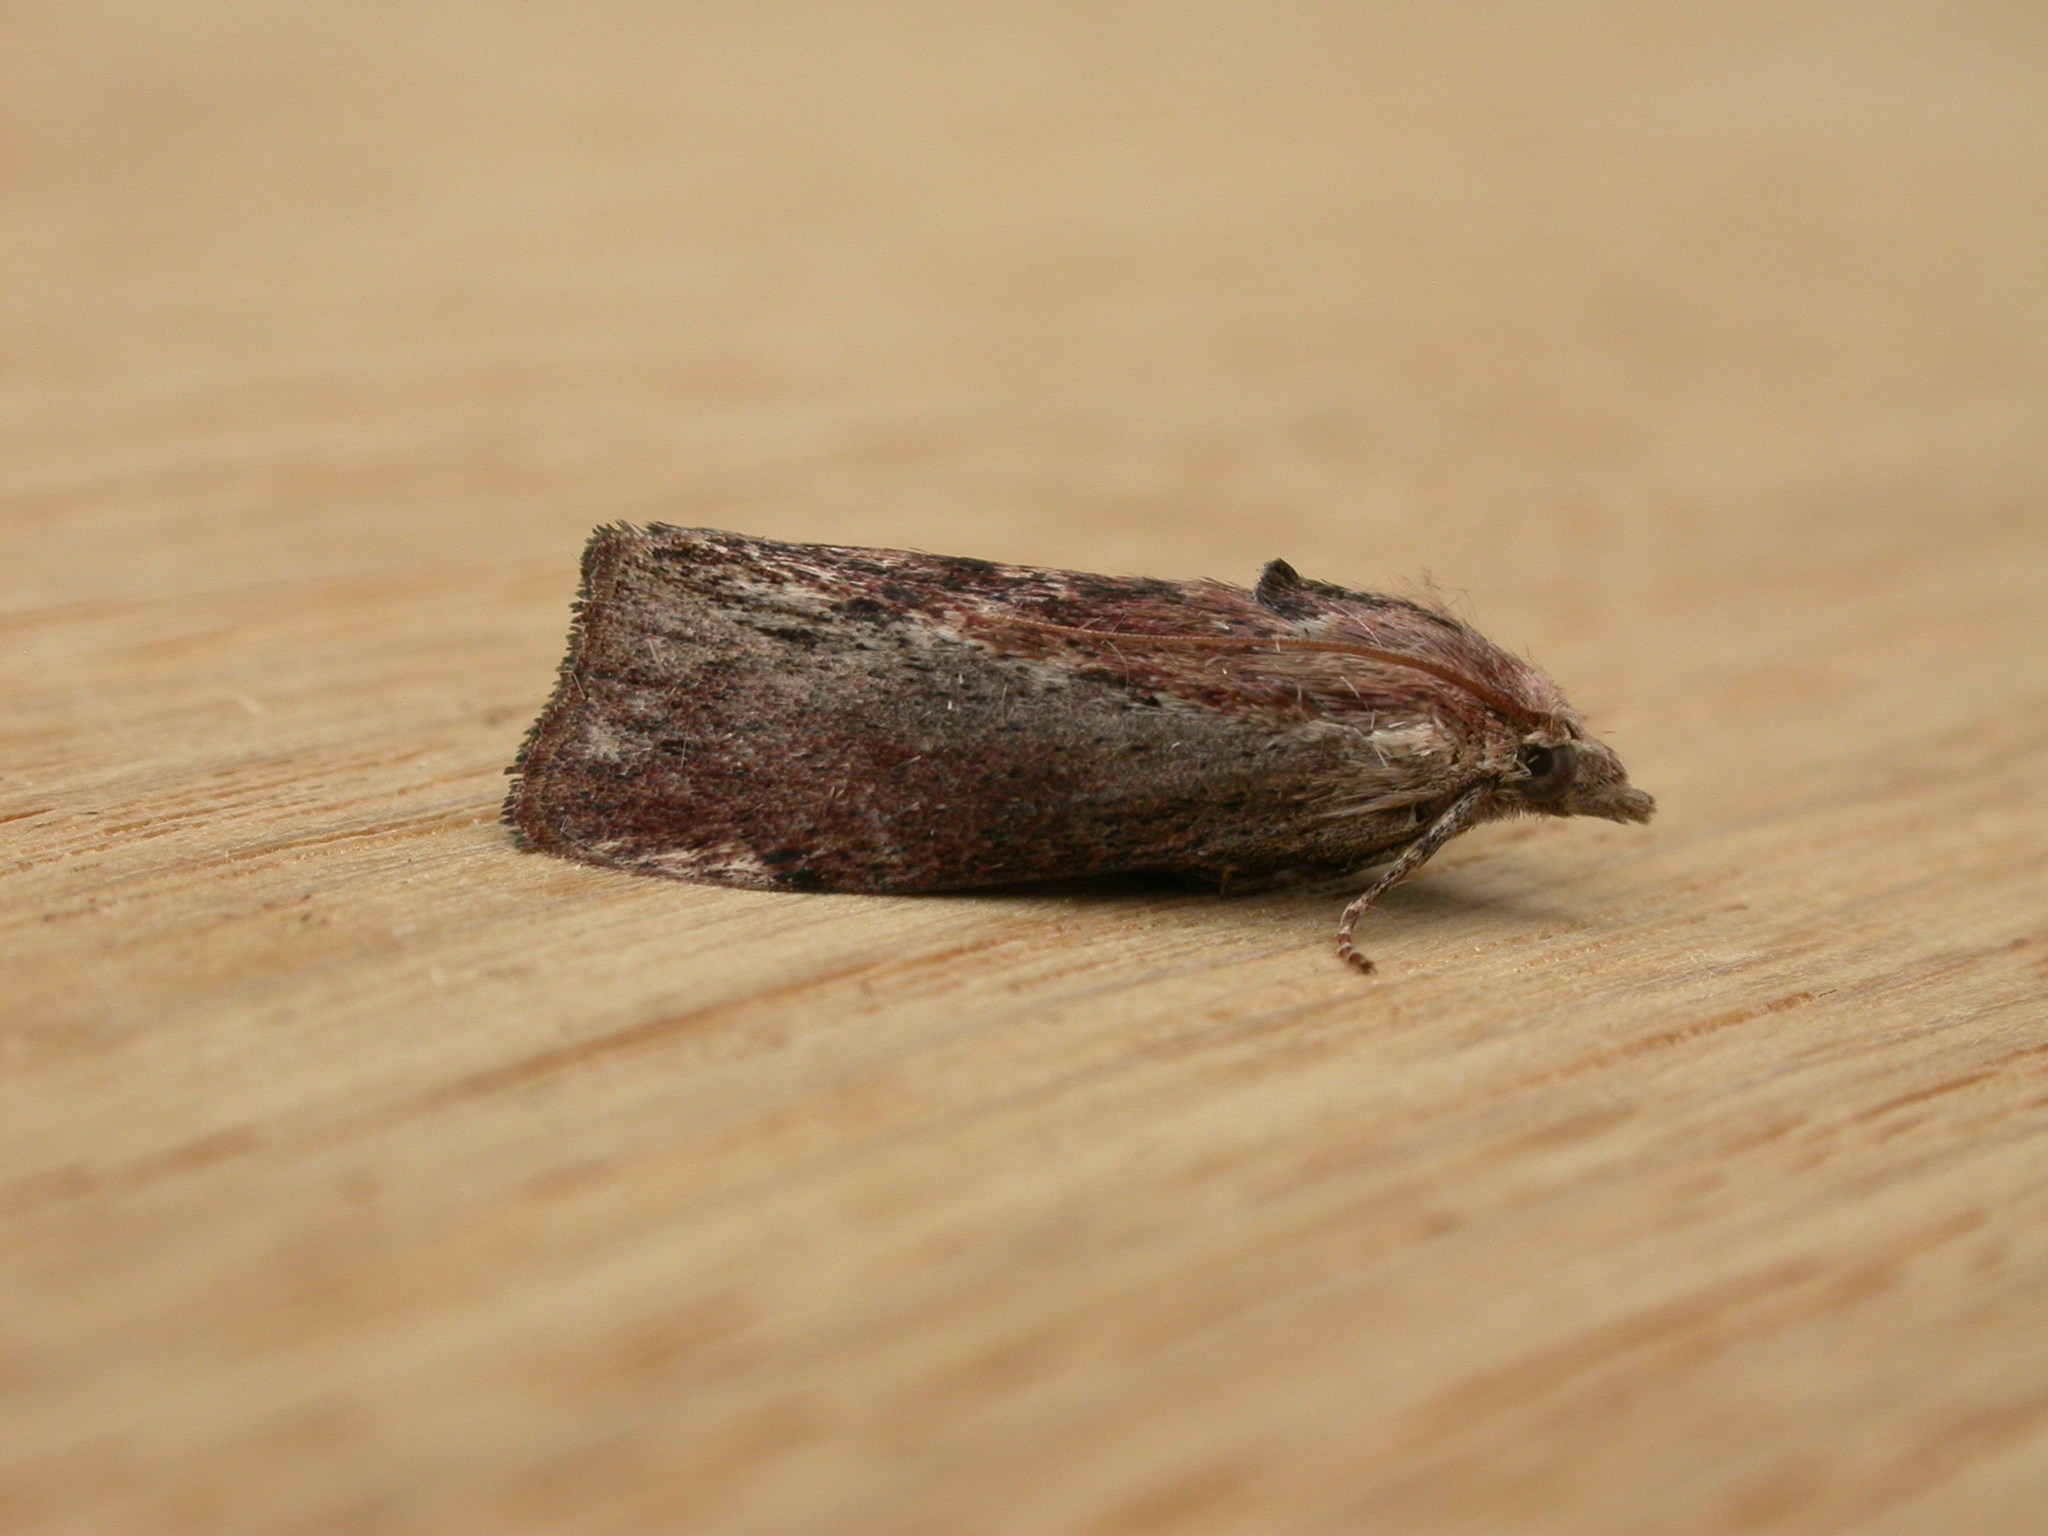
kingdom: Animalia
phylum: Arthropoda
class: Insecta
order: Lepidoptera
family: Pyralidae
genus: Galleria
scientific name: Galleria mellonella
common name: Greater wax moth
